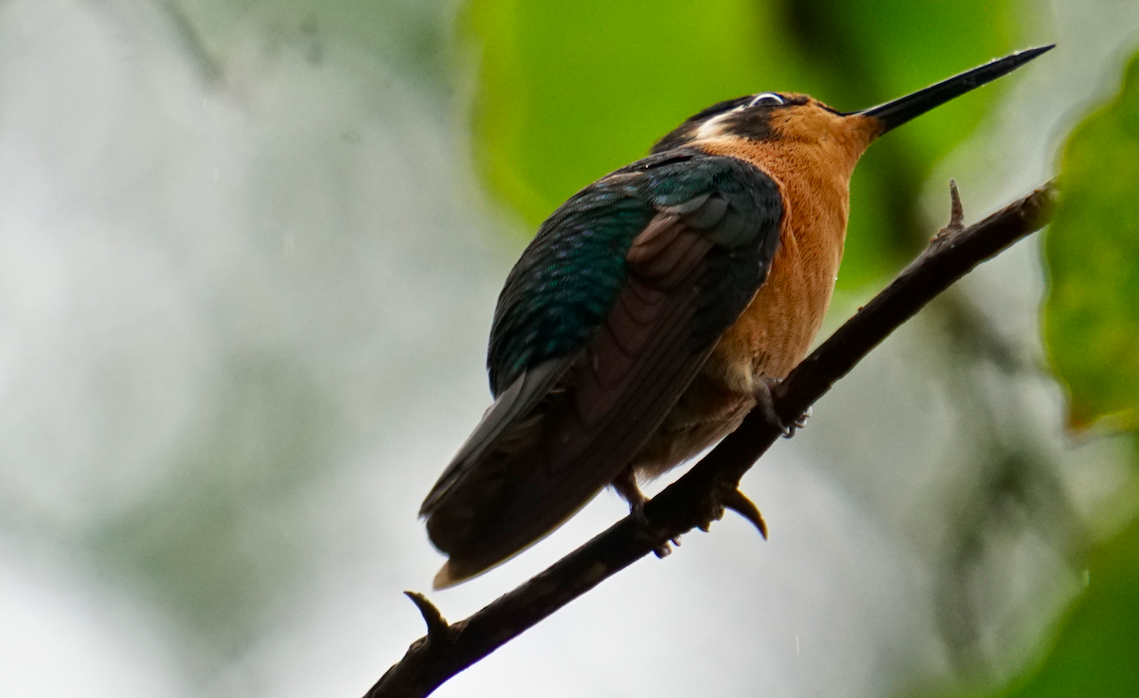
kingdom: Animalia
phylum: Chordata
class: Aves
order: Apodiformes
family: Trochilidae
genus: Lampornis
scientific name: Lampornis calolaemus
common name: Purple-throated mountain-gem
